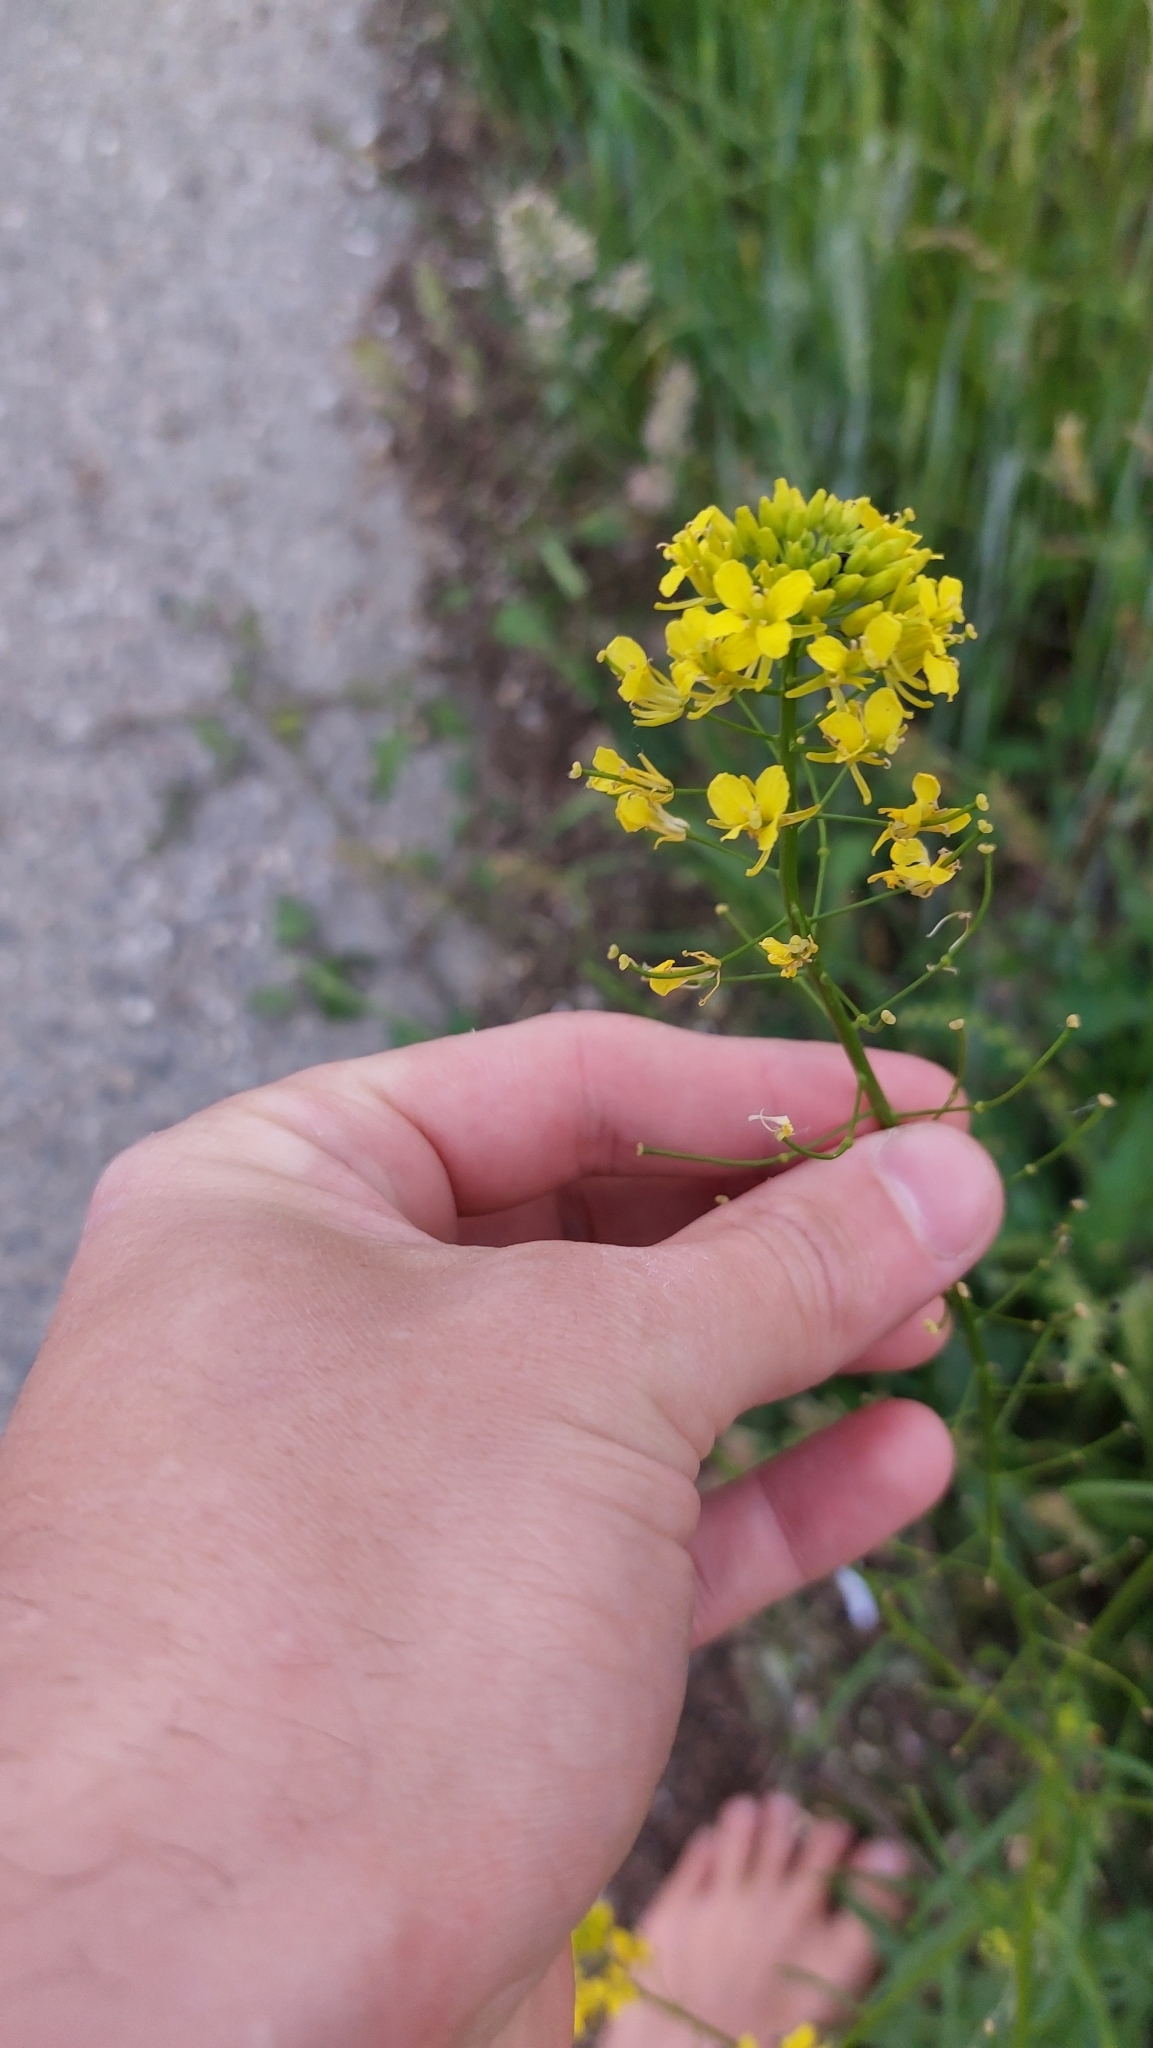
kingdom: Plantae
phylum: Tracheophyta
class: Magnoliopsida
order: Brassicales
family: Brassicaceae
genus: Sisymbrium
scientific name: Sisymbrium loeselii
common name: False london-rocket
